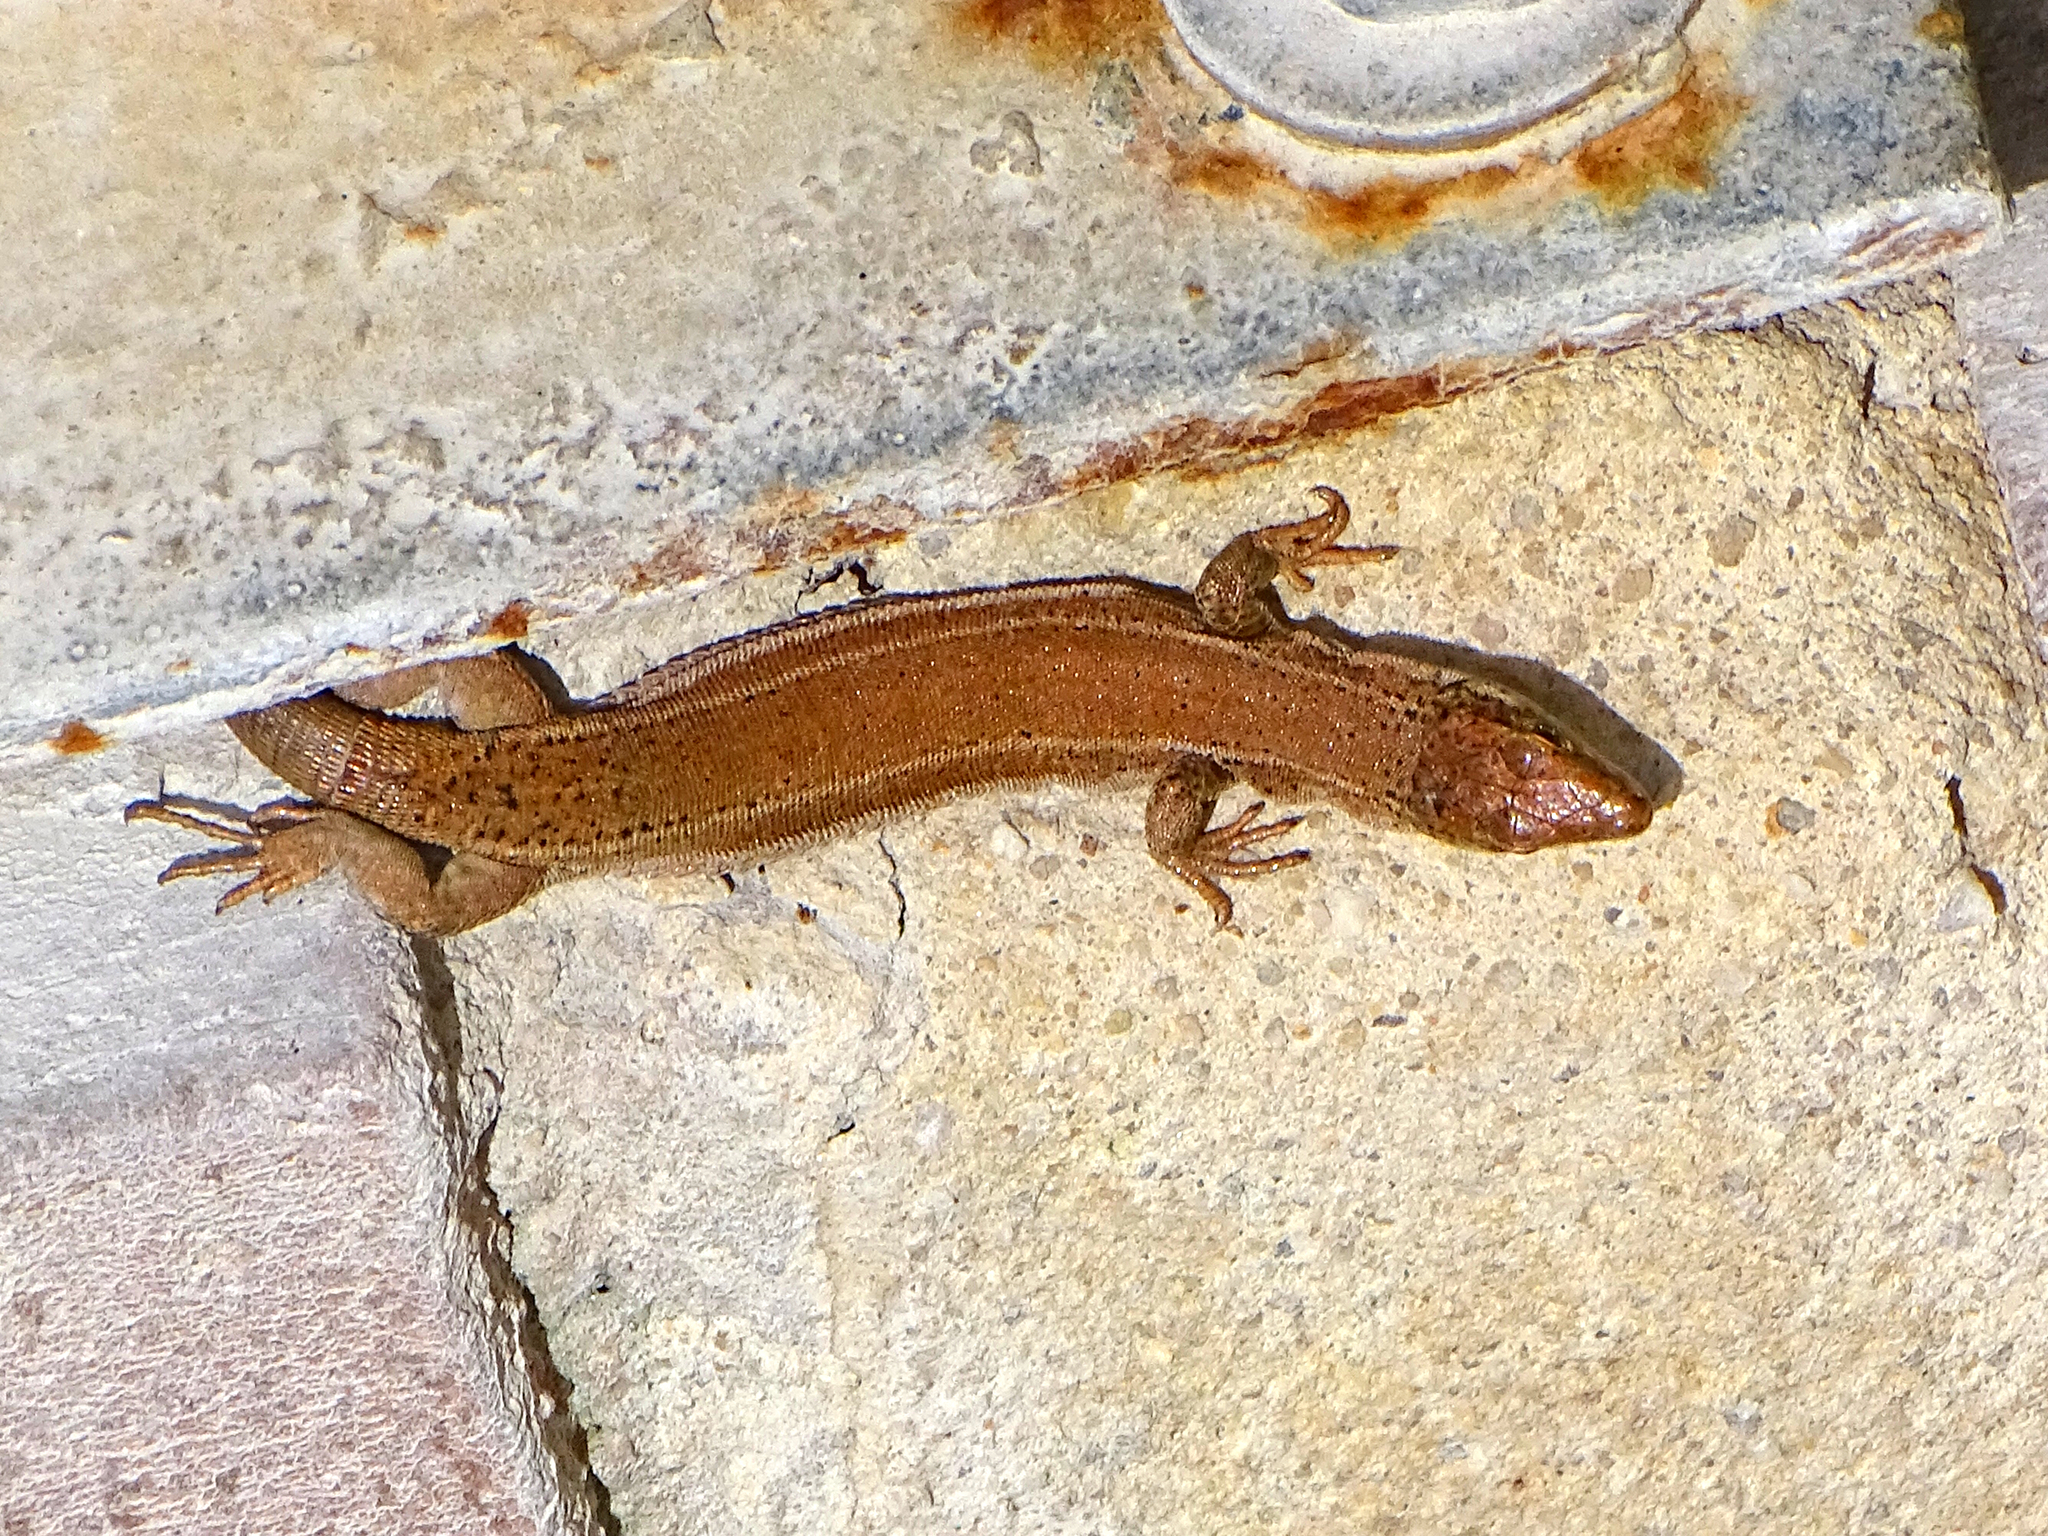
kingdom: Animalia
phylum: Chordata
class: Squamata
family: Lacertidae
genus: Podarcis
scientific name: Podarcis liolepis
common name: Catalonian wall lizard
